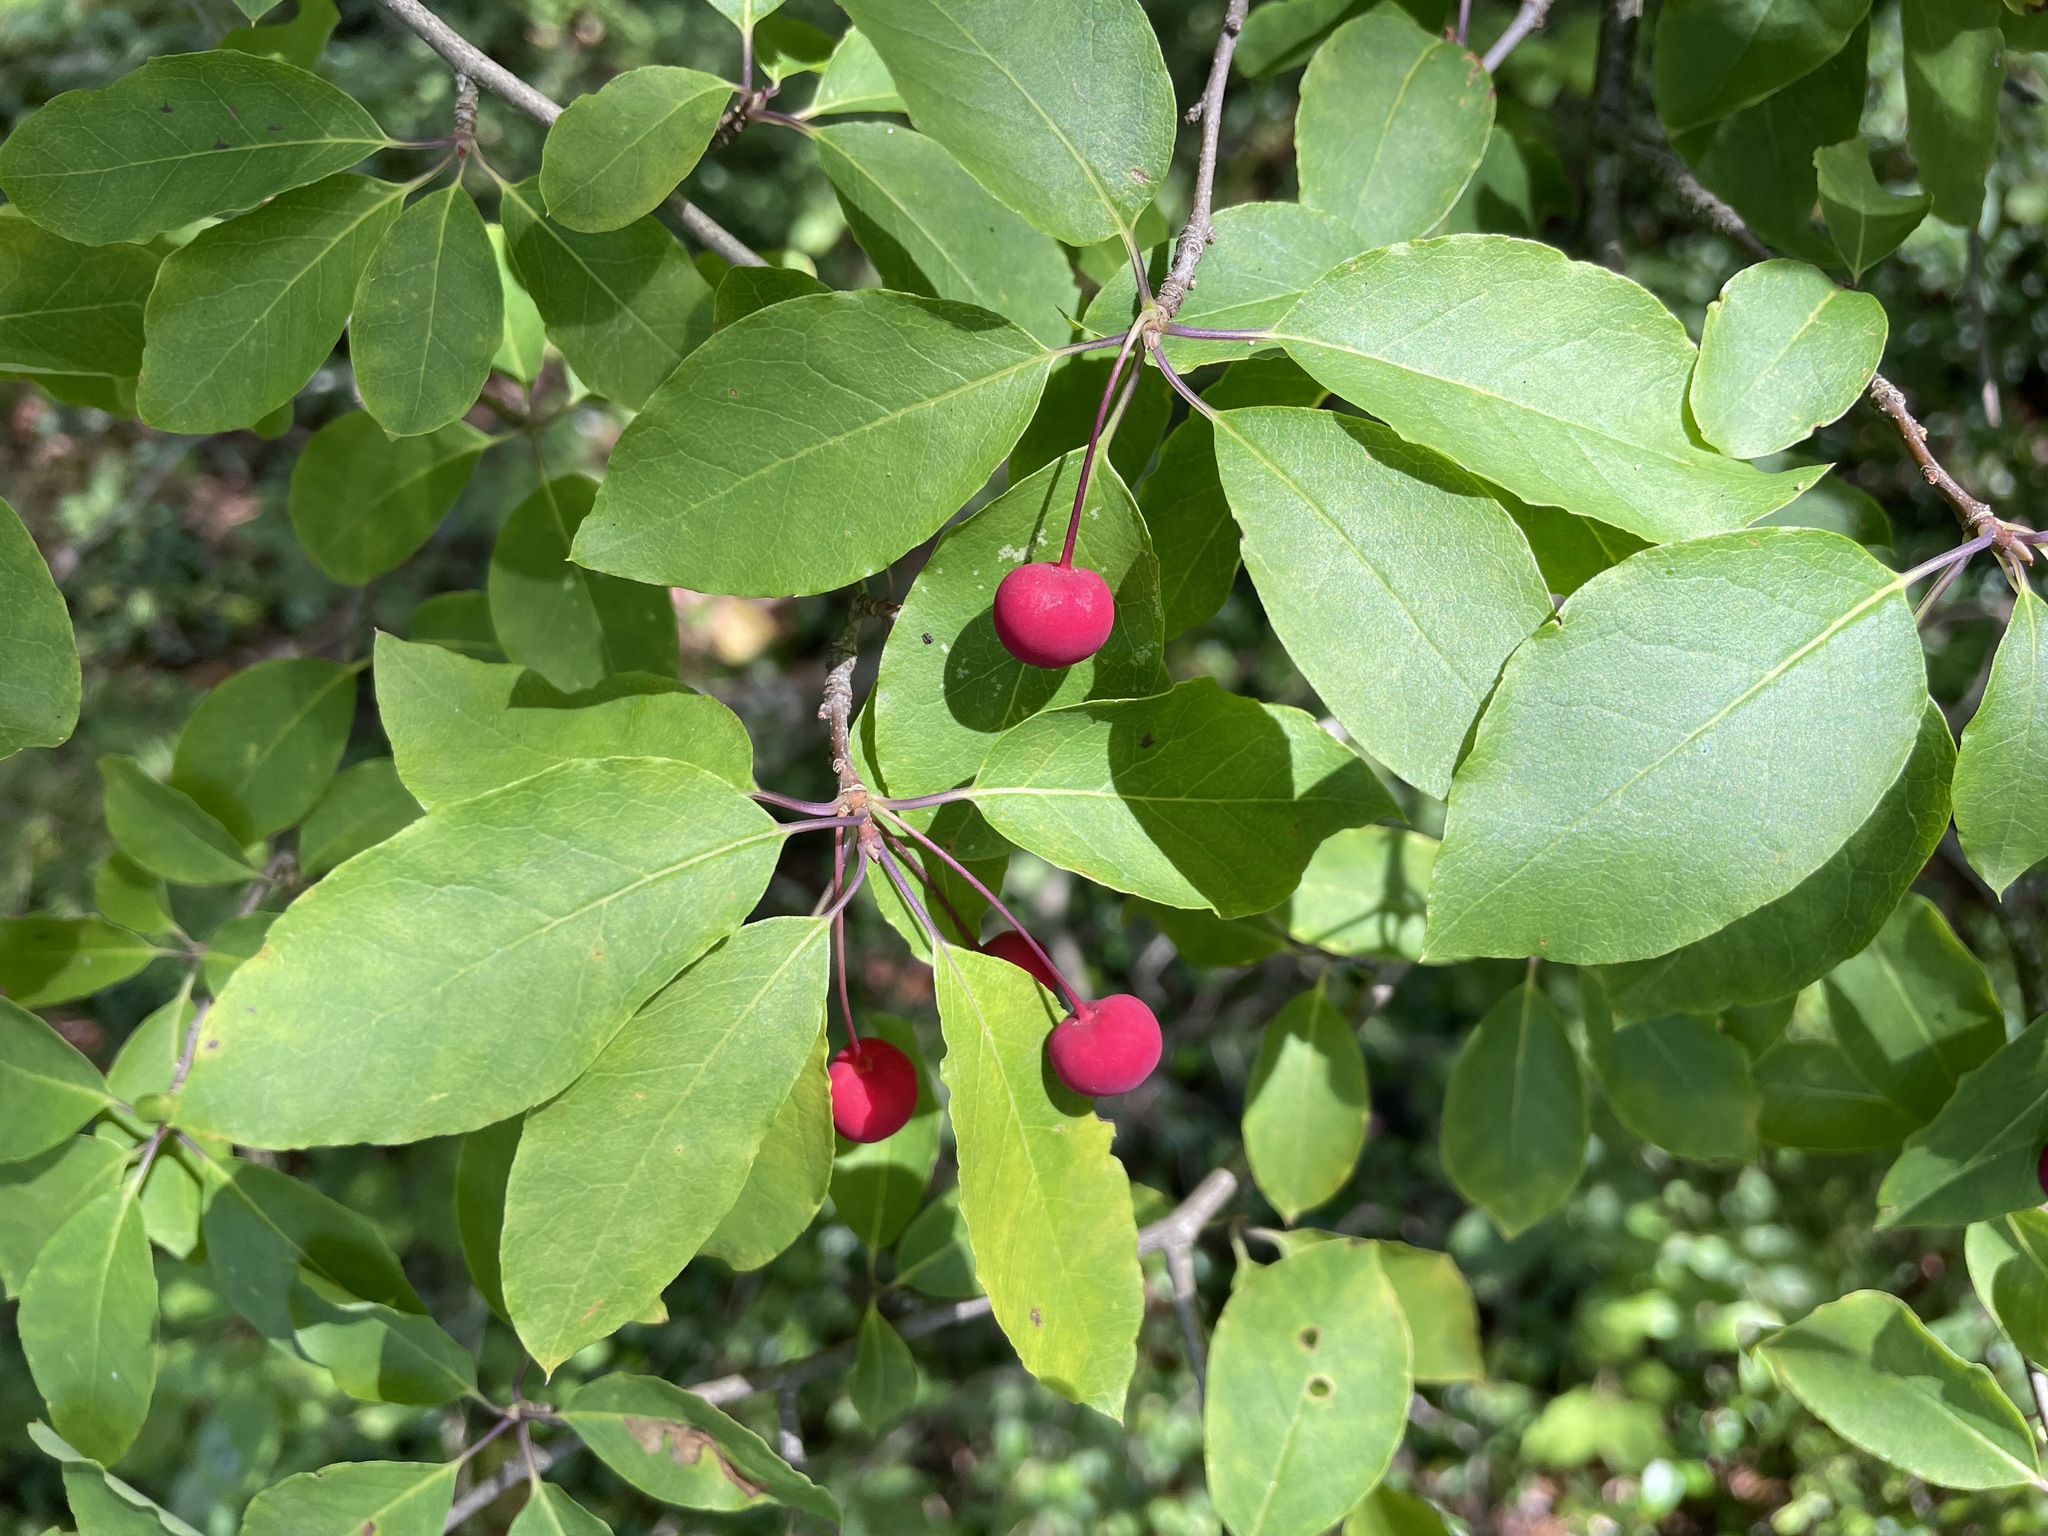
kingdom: Plantae
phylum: Tracheophyta
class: Magnoliopsida
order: Aquifoliales
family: Aquifoliaceae
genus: Ilex
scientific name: Ilex mucronata
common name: Catberry
